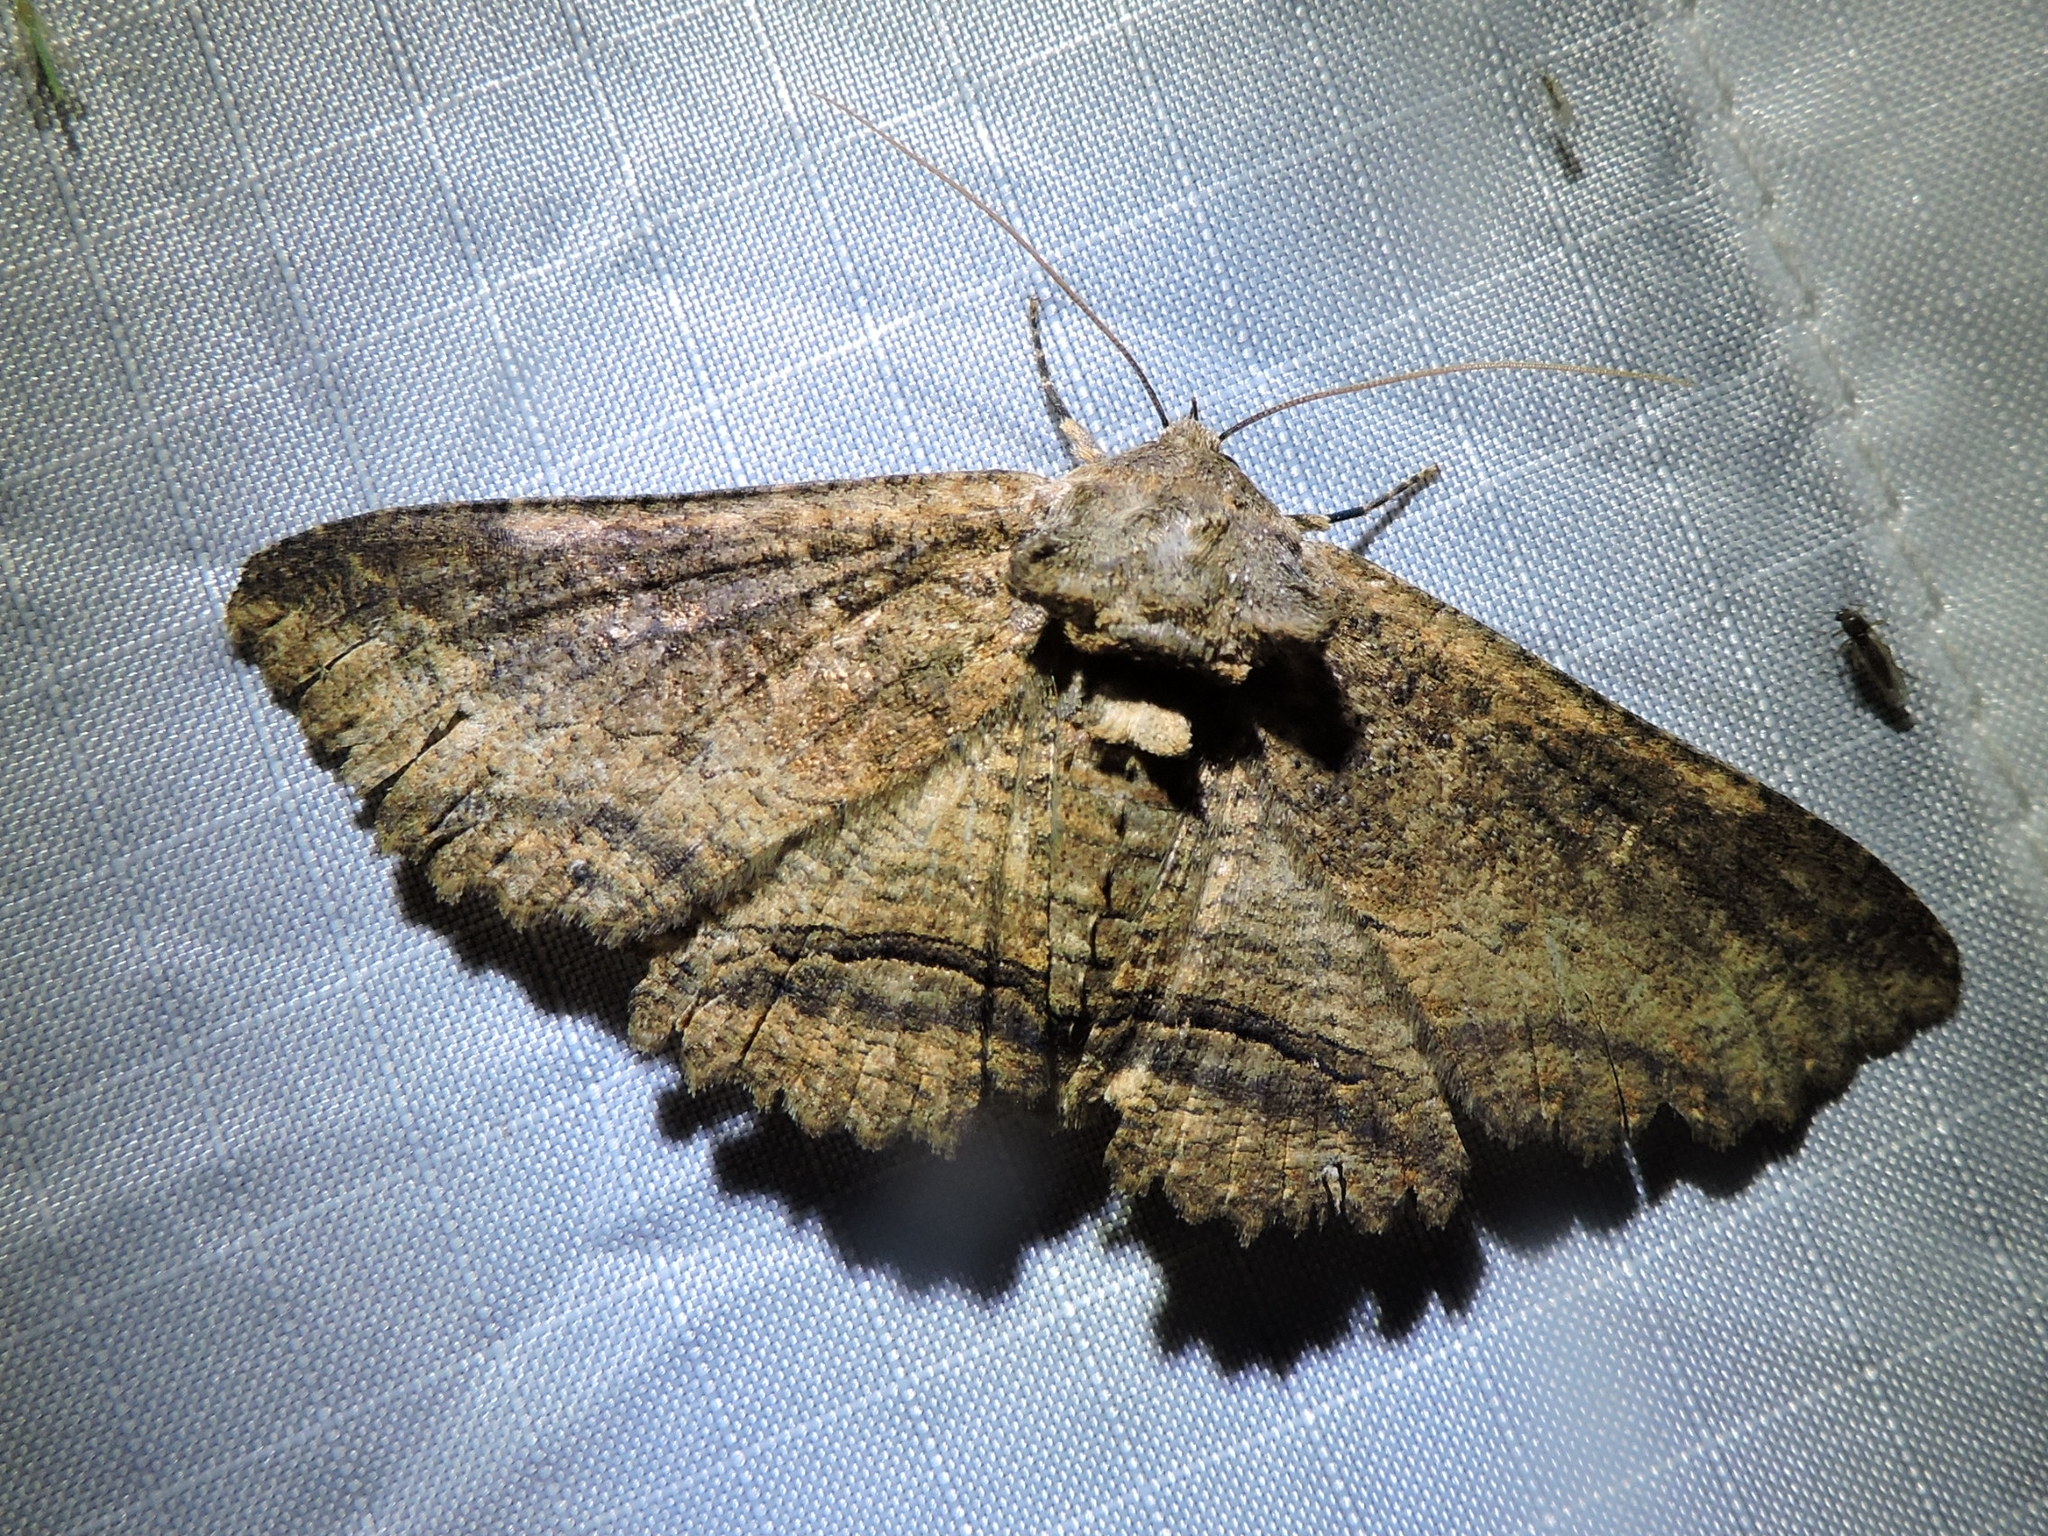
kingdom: Animalia
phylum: Arthropoda
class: Insecta
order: Lepidoptera
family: Erebidae
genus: Zale
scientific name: Zale lunata
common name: Lunate zale moth
